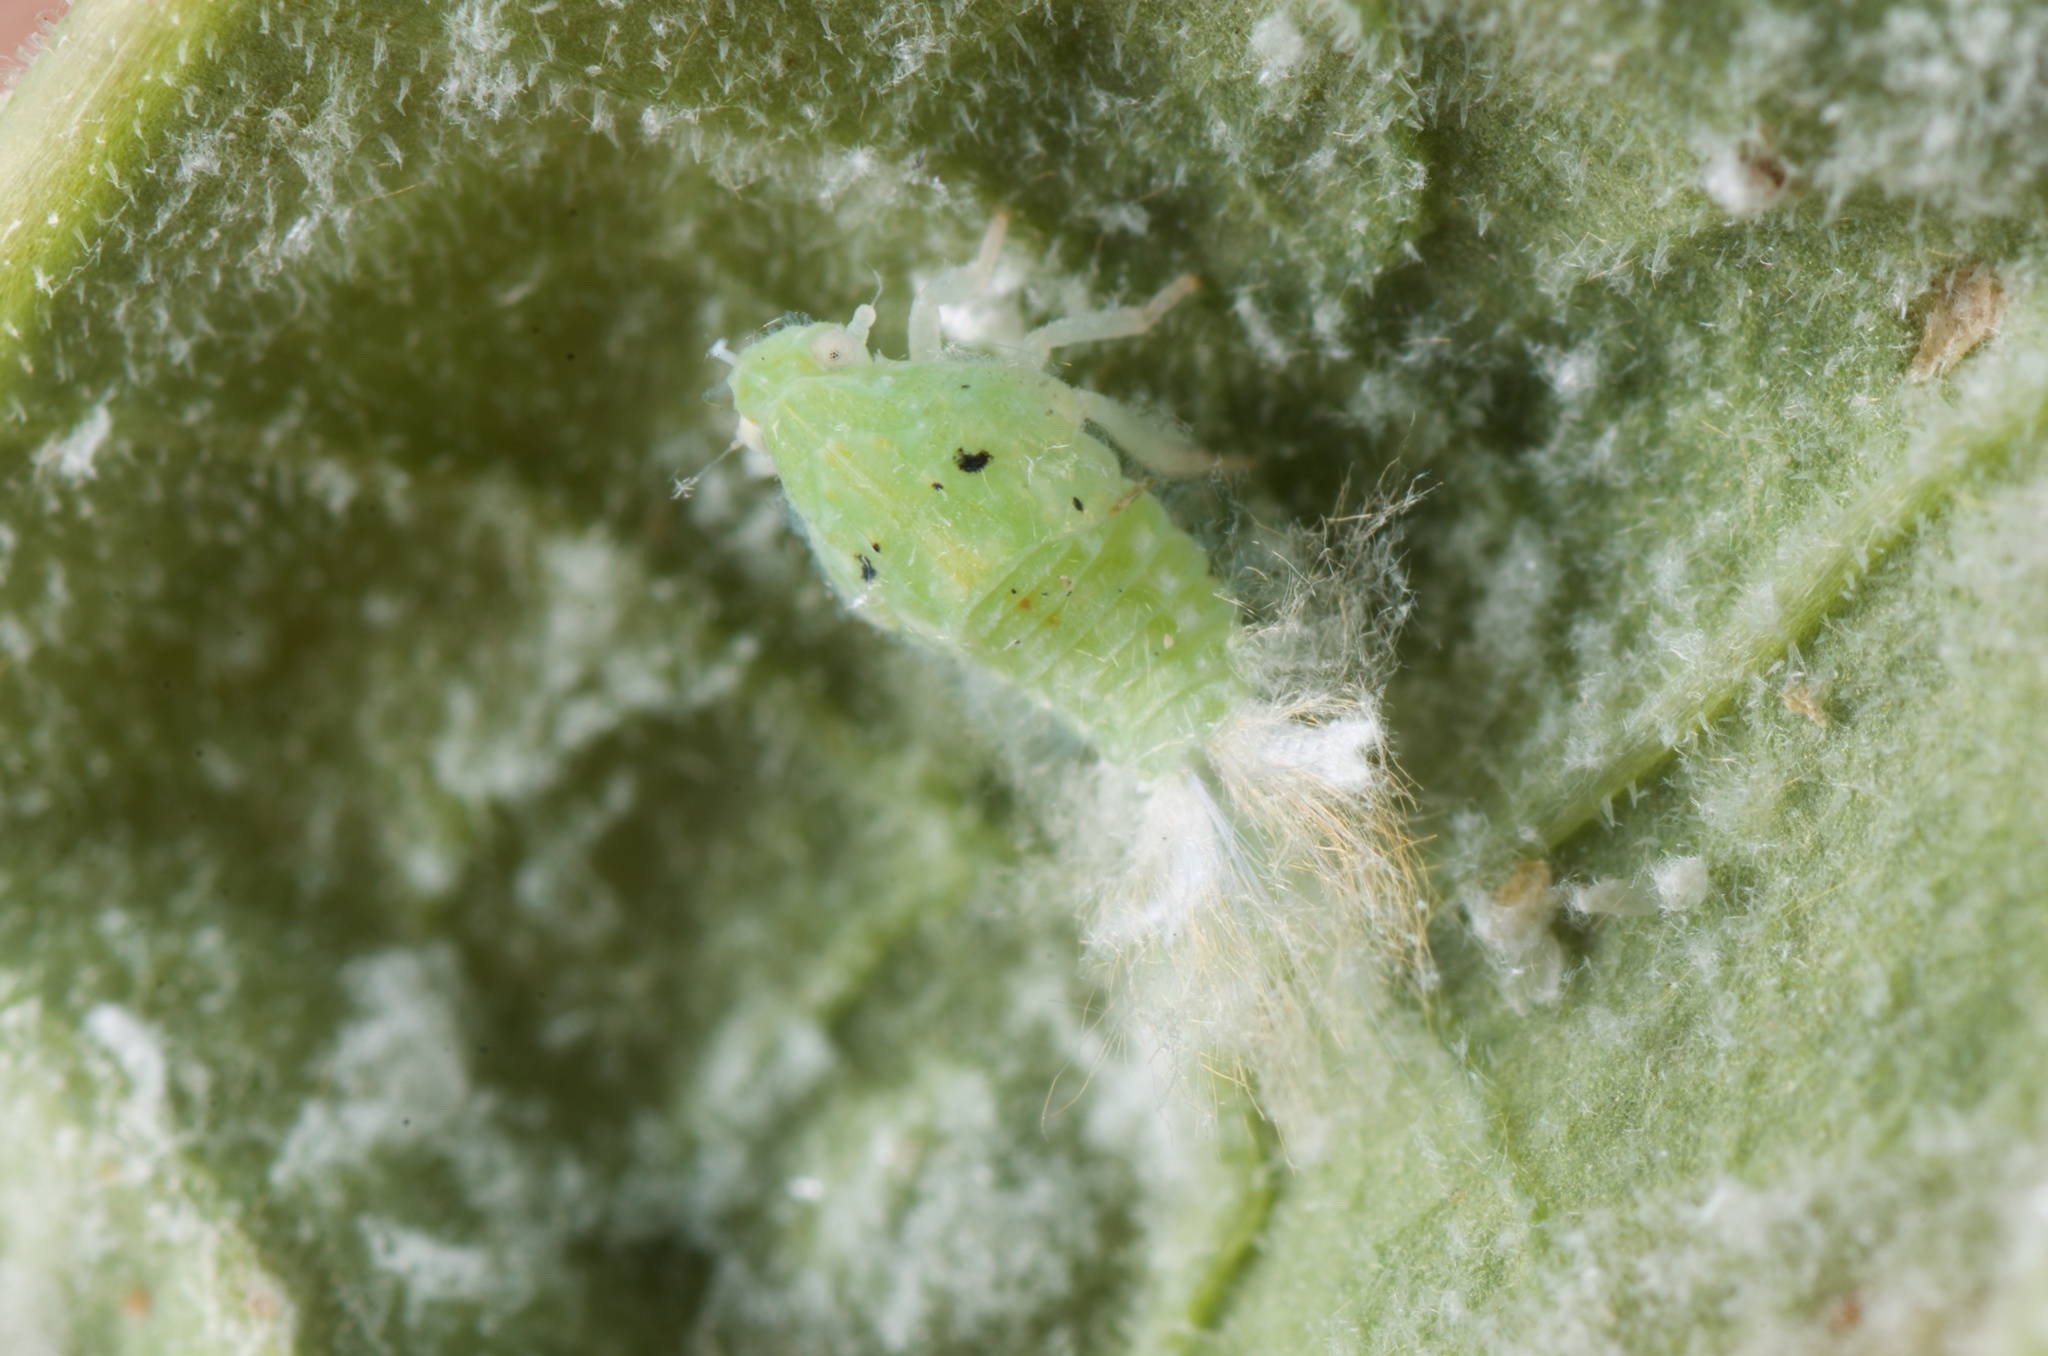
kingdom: Animalia
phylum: Arthropoda
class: Insecta
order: Hemiptera
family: Flatidae
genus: Siphanta
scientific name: Siphanta acuta
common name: Torpedo bug
